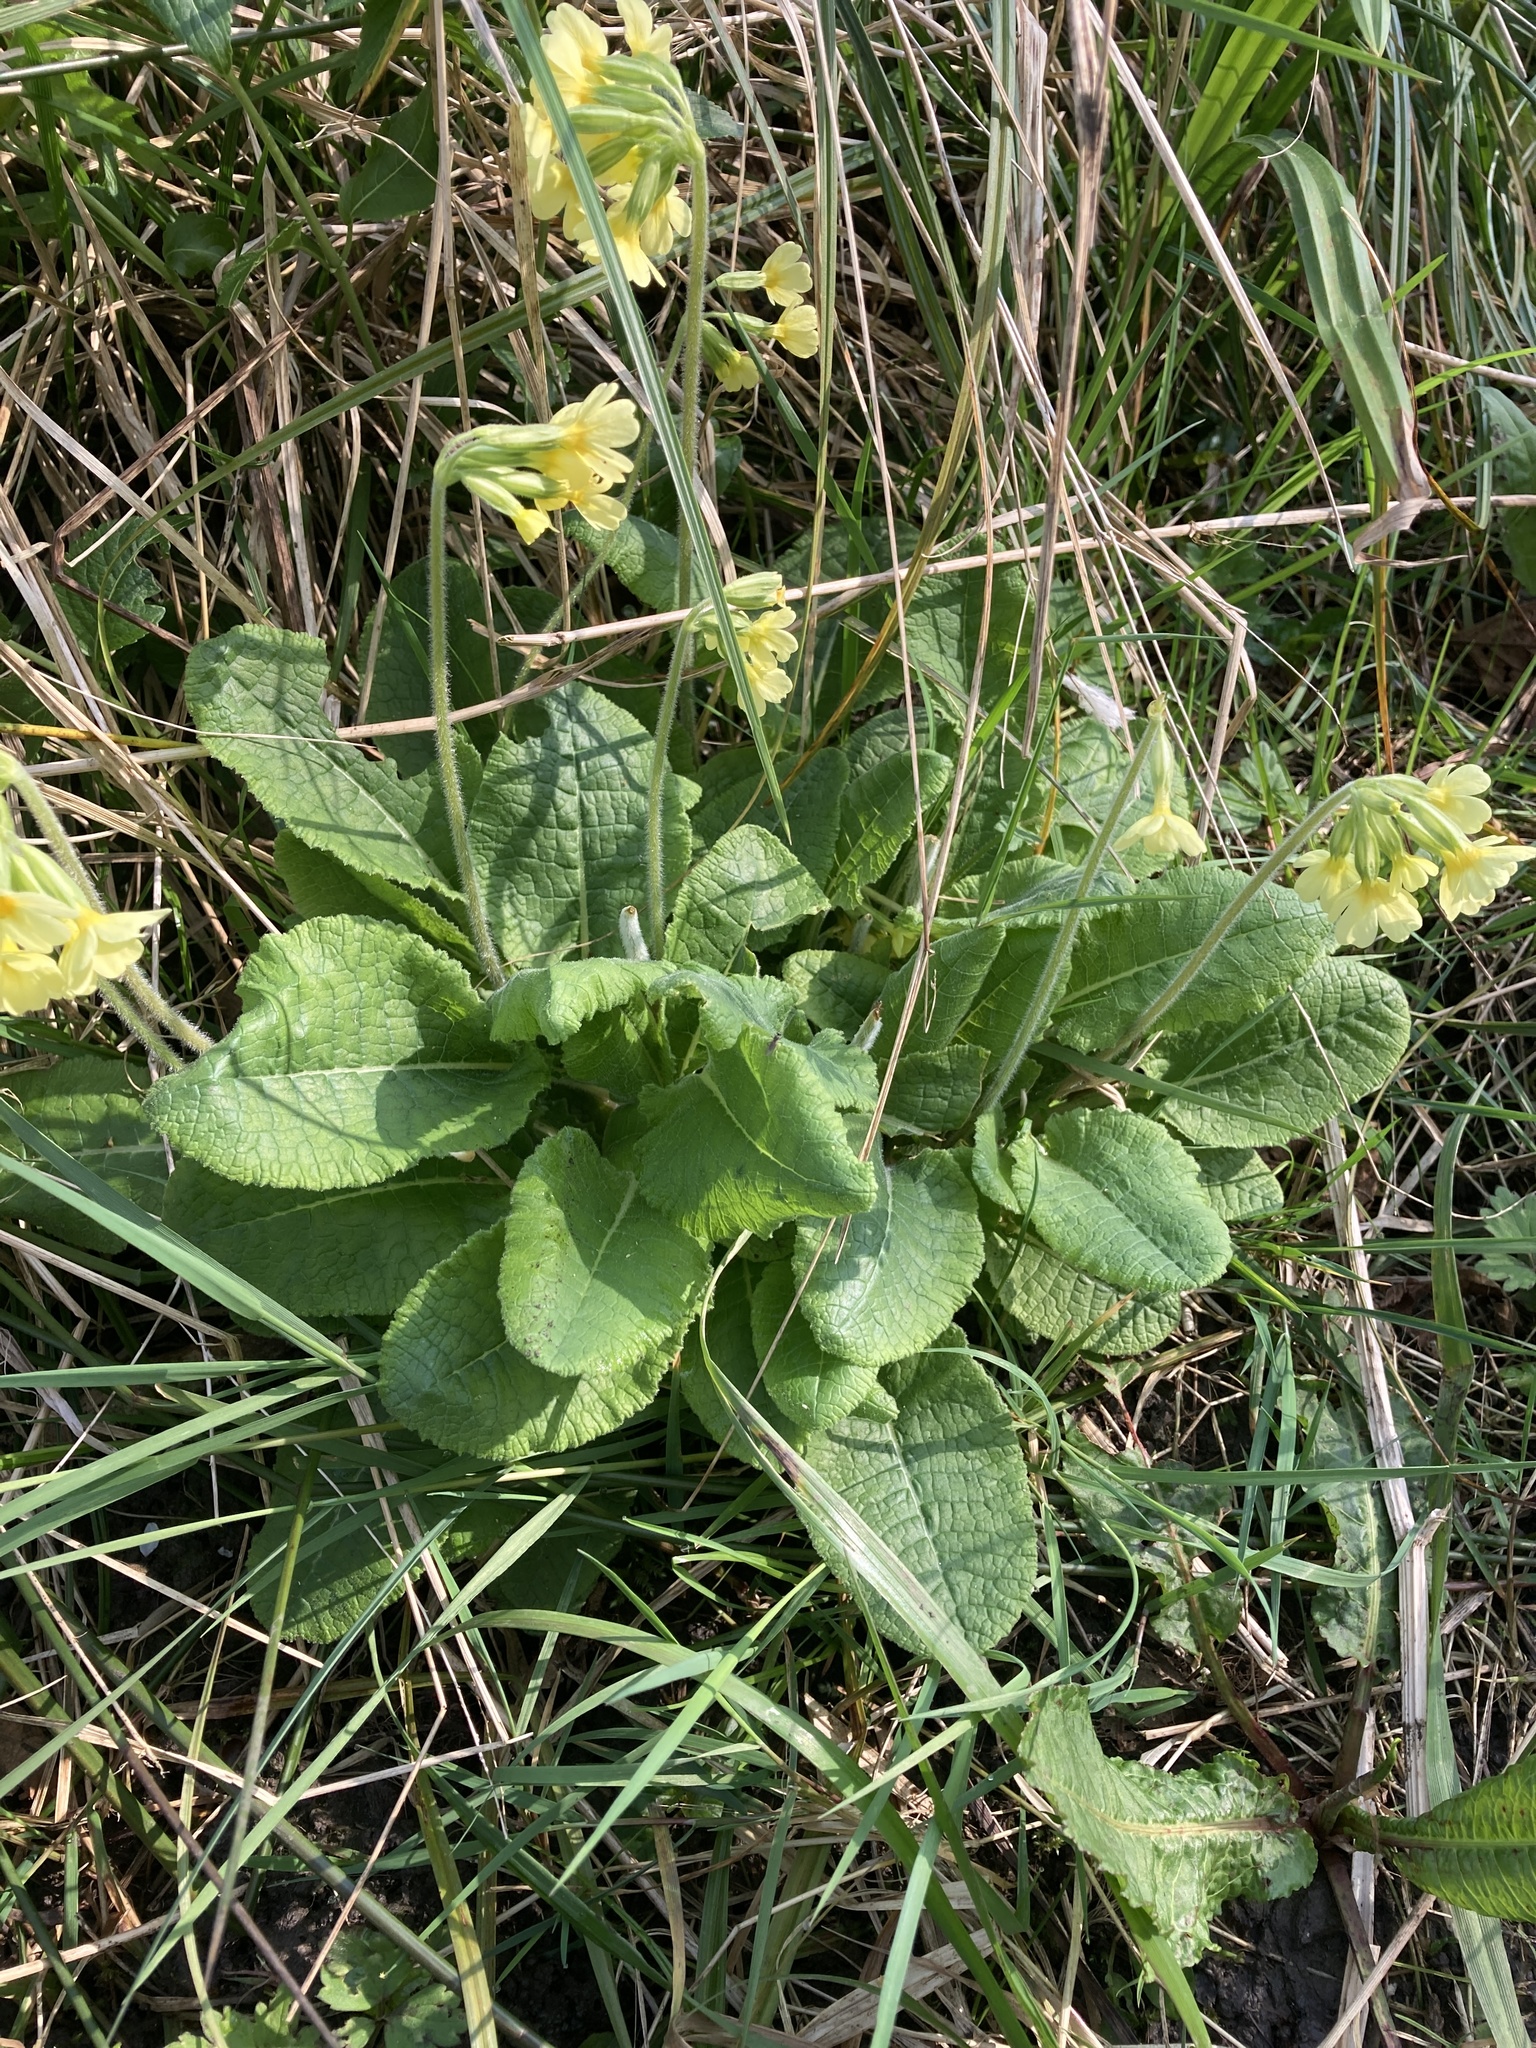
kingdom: Plantae
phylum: Tracheophyta
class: Magnoliopsida
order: Ericales
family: Primulaceae
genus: Primula
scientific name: Primula elatior
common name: Oxlip
